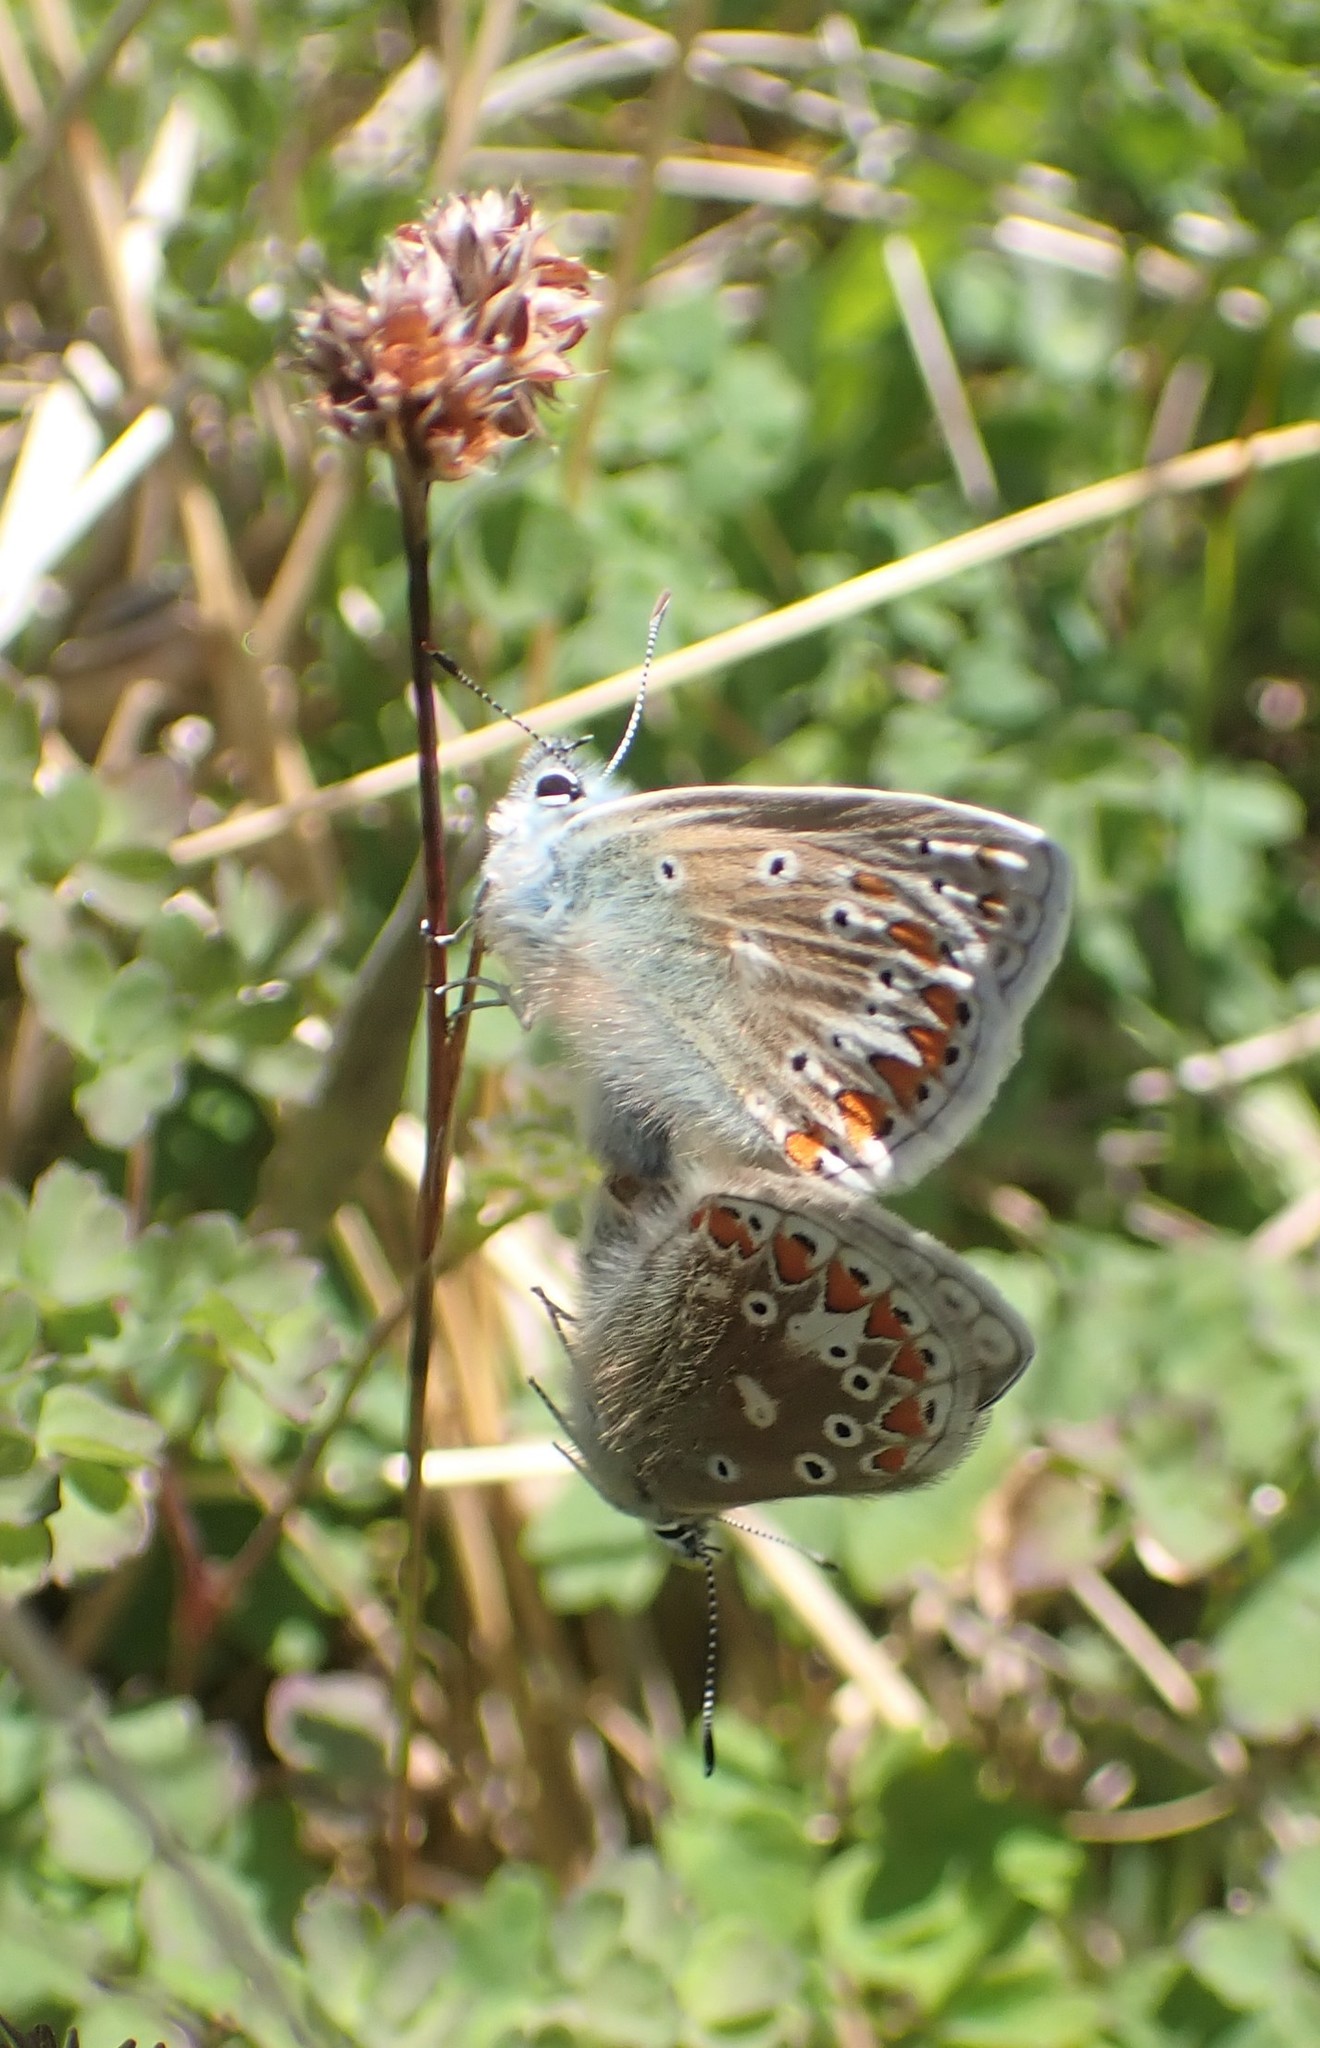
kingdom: Animalia
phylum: Arthropoda
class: Insecta
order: Lepidoptera
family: Lycaenidae
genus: Polyommatus
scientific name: Polyommatus icarus
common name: Common blue
